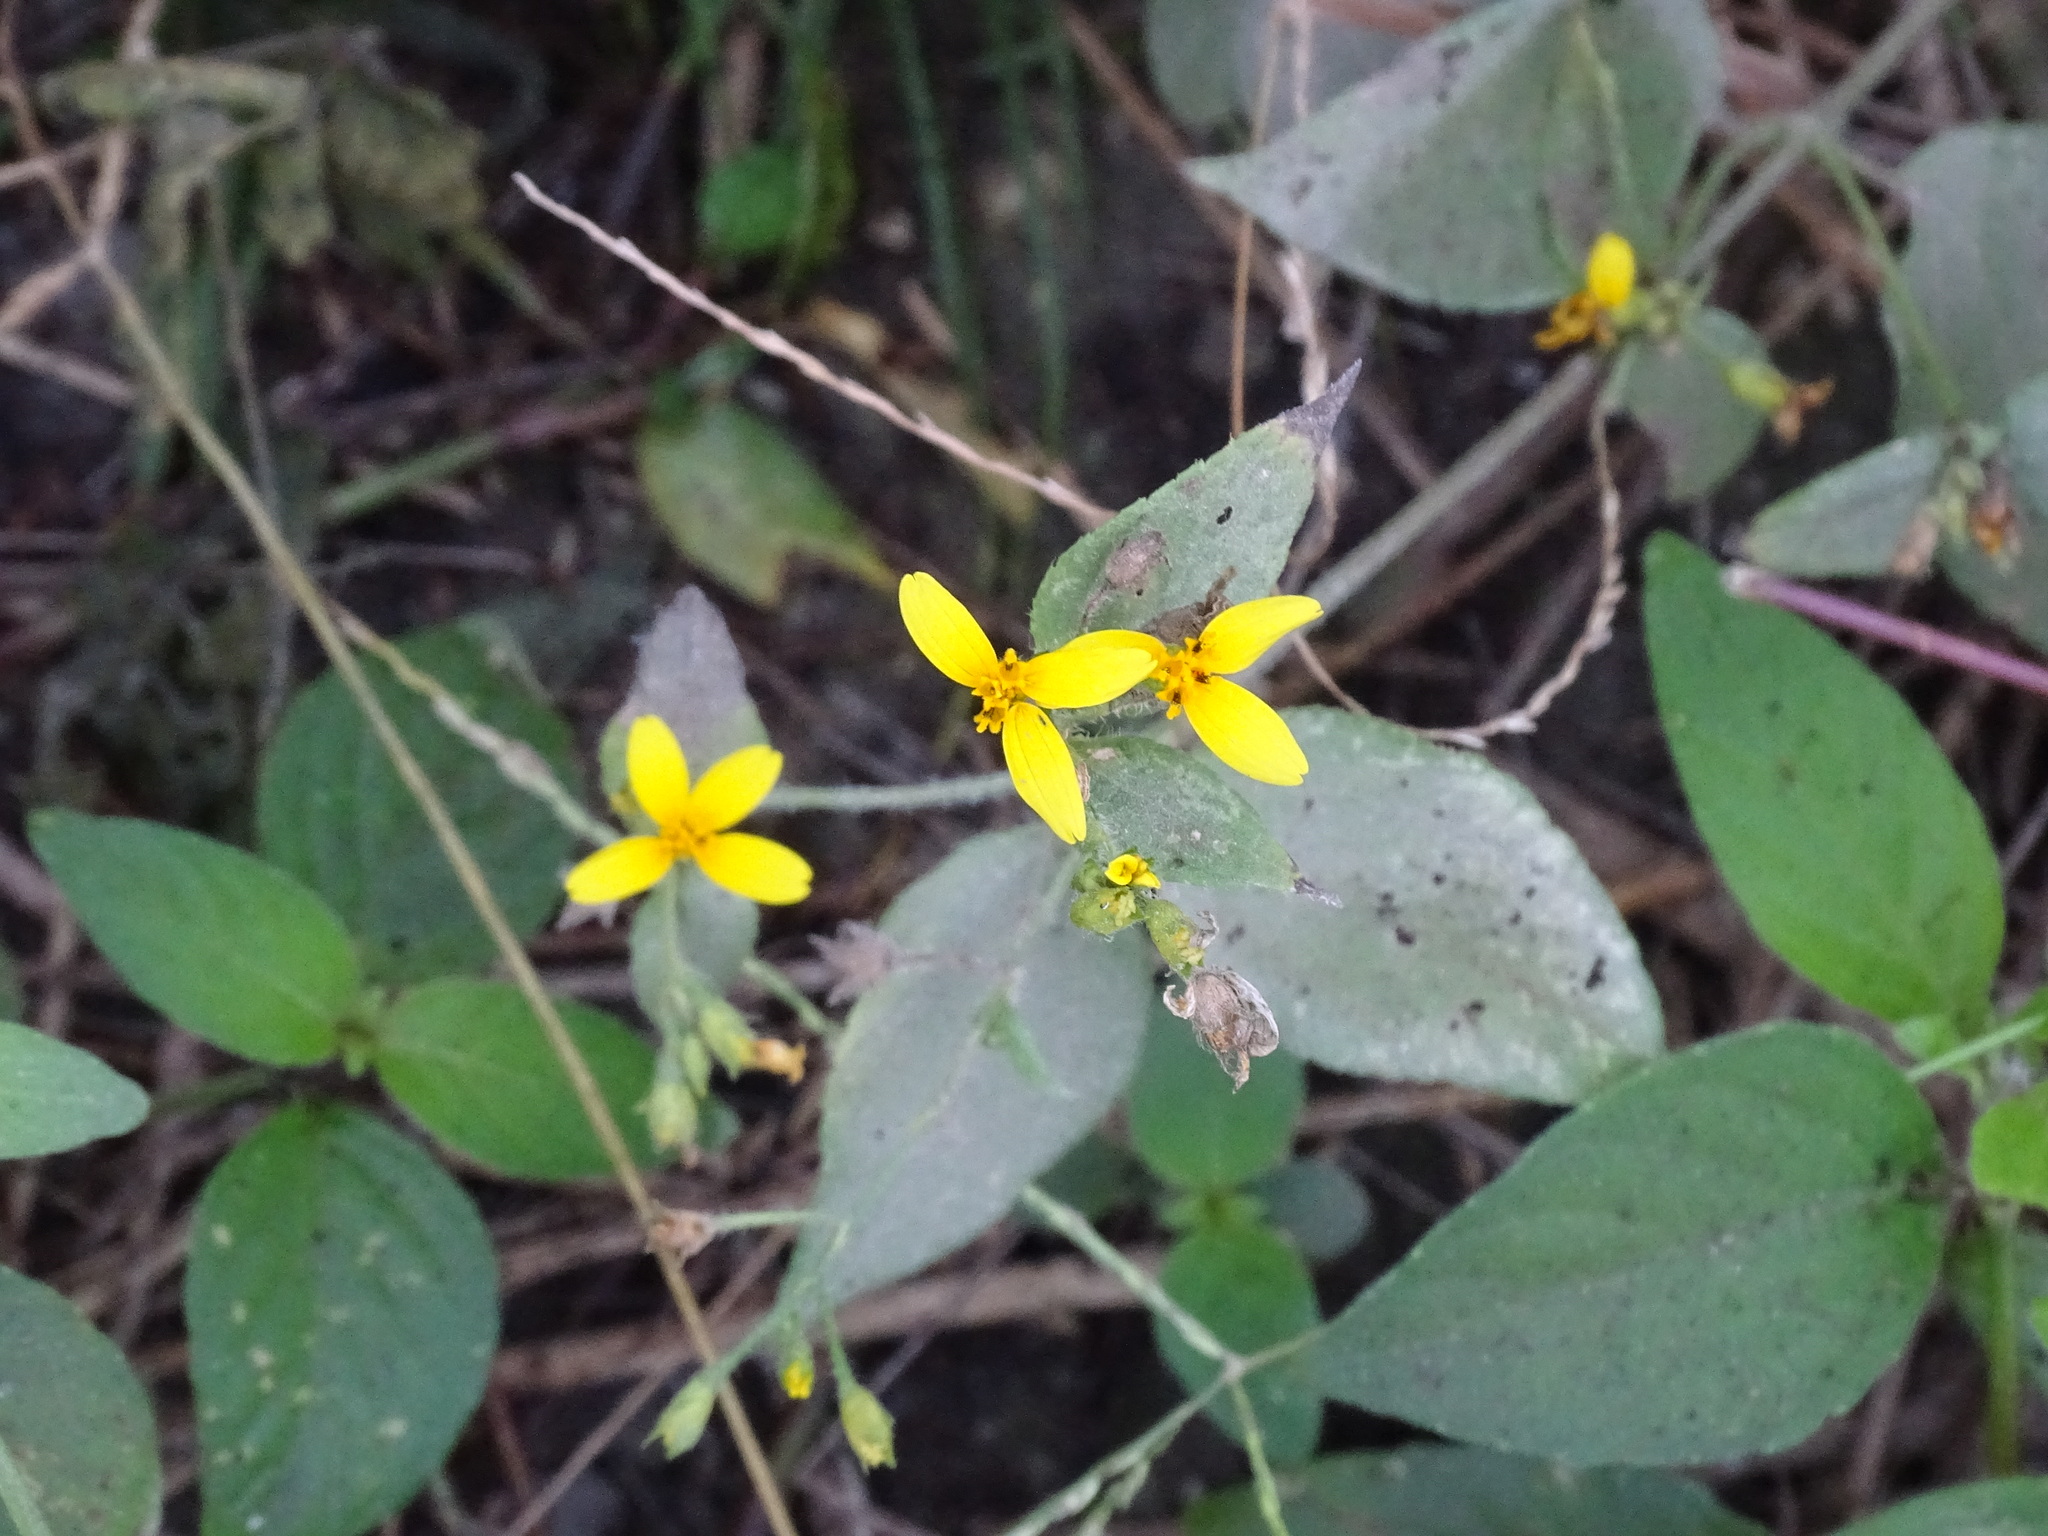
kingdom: Plantae
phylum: Tracheophyta
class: Magnoliopsida
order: Asterales
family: Asteraceae
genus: Wedelia
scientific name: Wedelia acapulcensis
